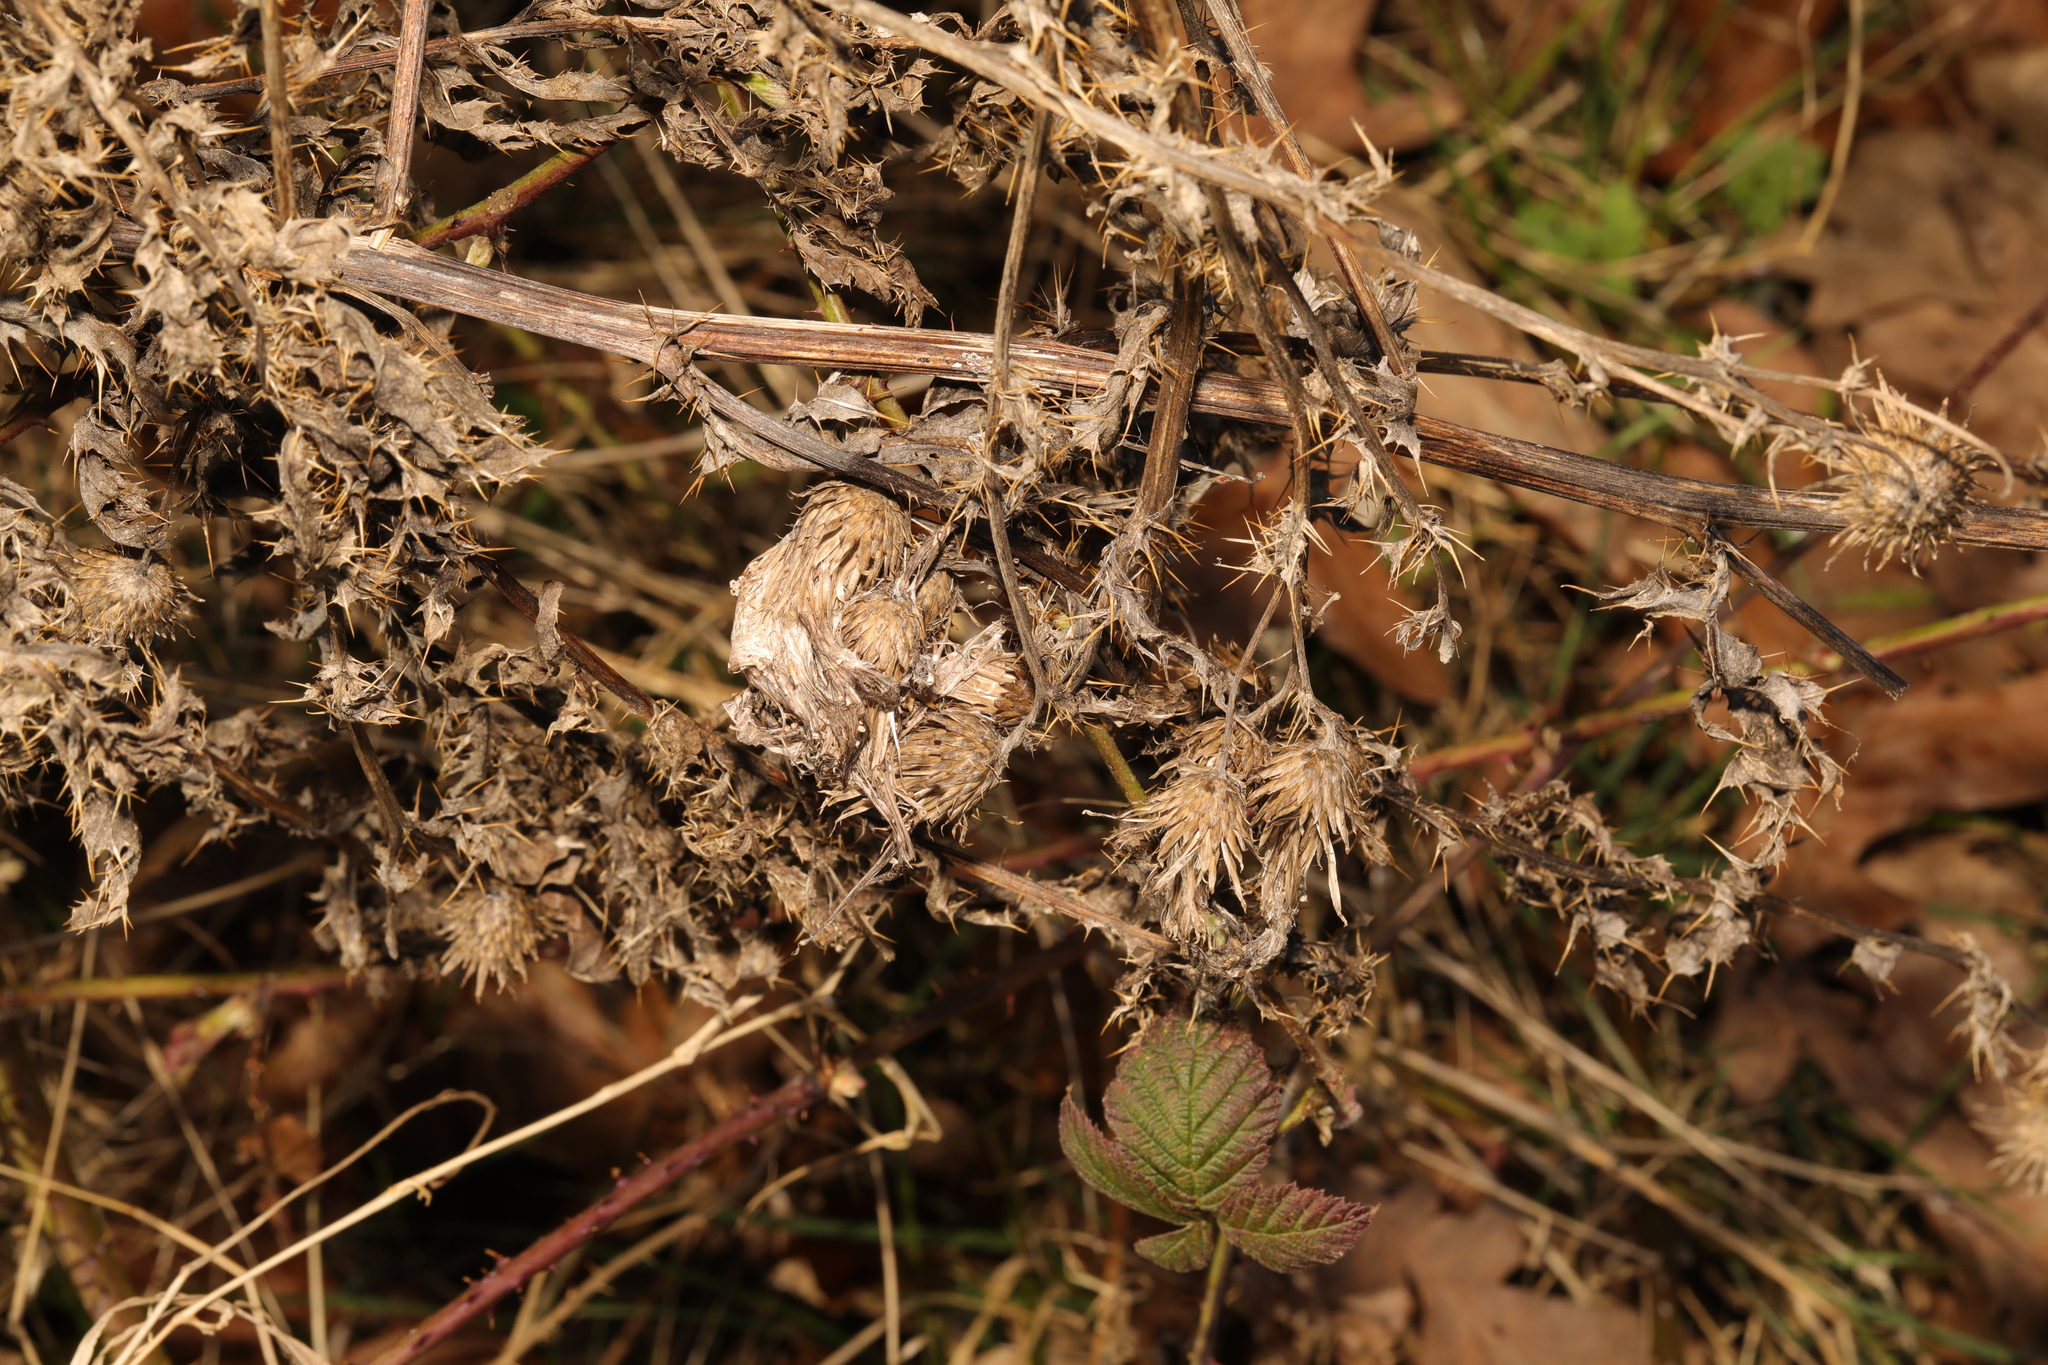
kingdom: Plantae
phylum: Tracheophyta
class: Magnoliopsida
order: Asterales
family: Asteraceae
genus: Cirsium
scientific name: Cirsium arvense
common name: Creeping thistle
